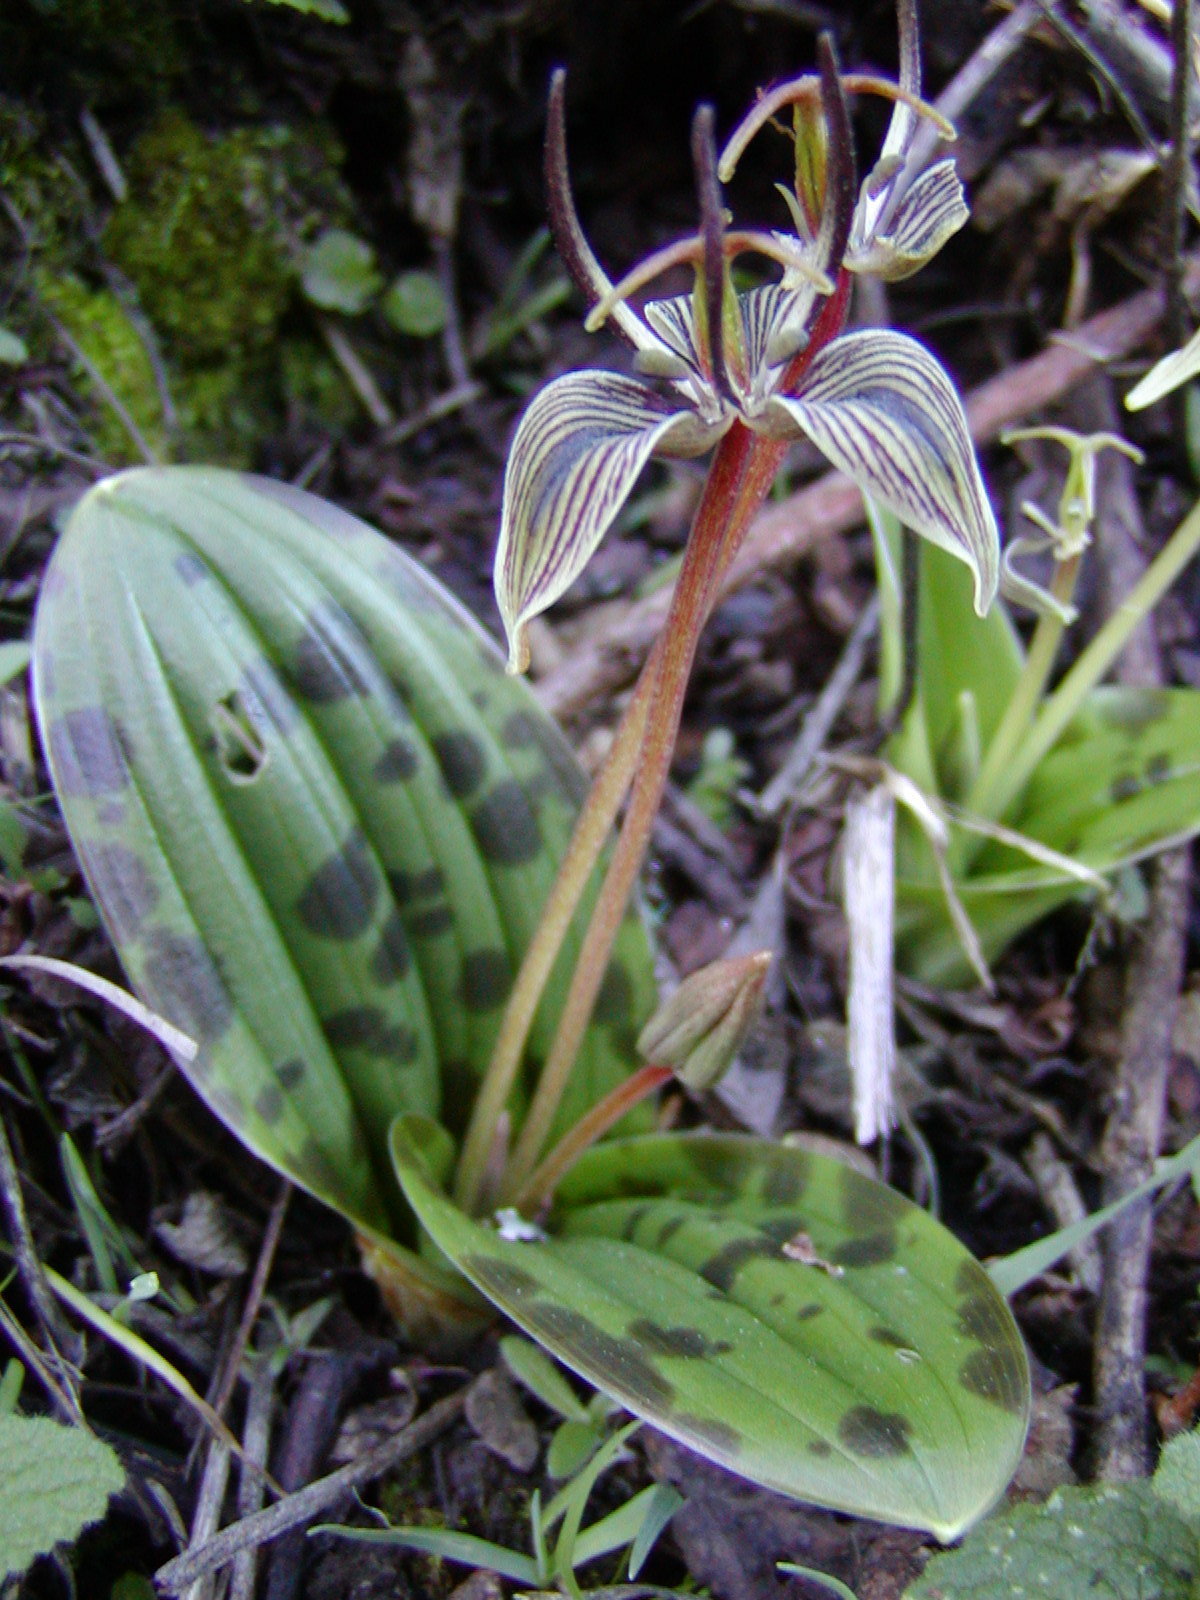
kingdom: Plantae
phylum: Tracheophyta
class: Liliopsida
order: Liliales
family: Liliaceae
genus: Scoliopus
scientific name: Scoliopus bigelovii
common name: Foetid adder's-tongue
